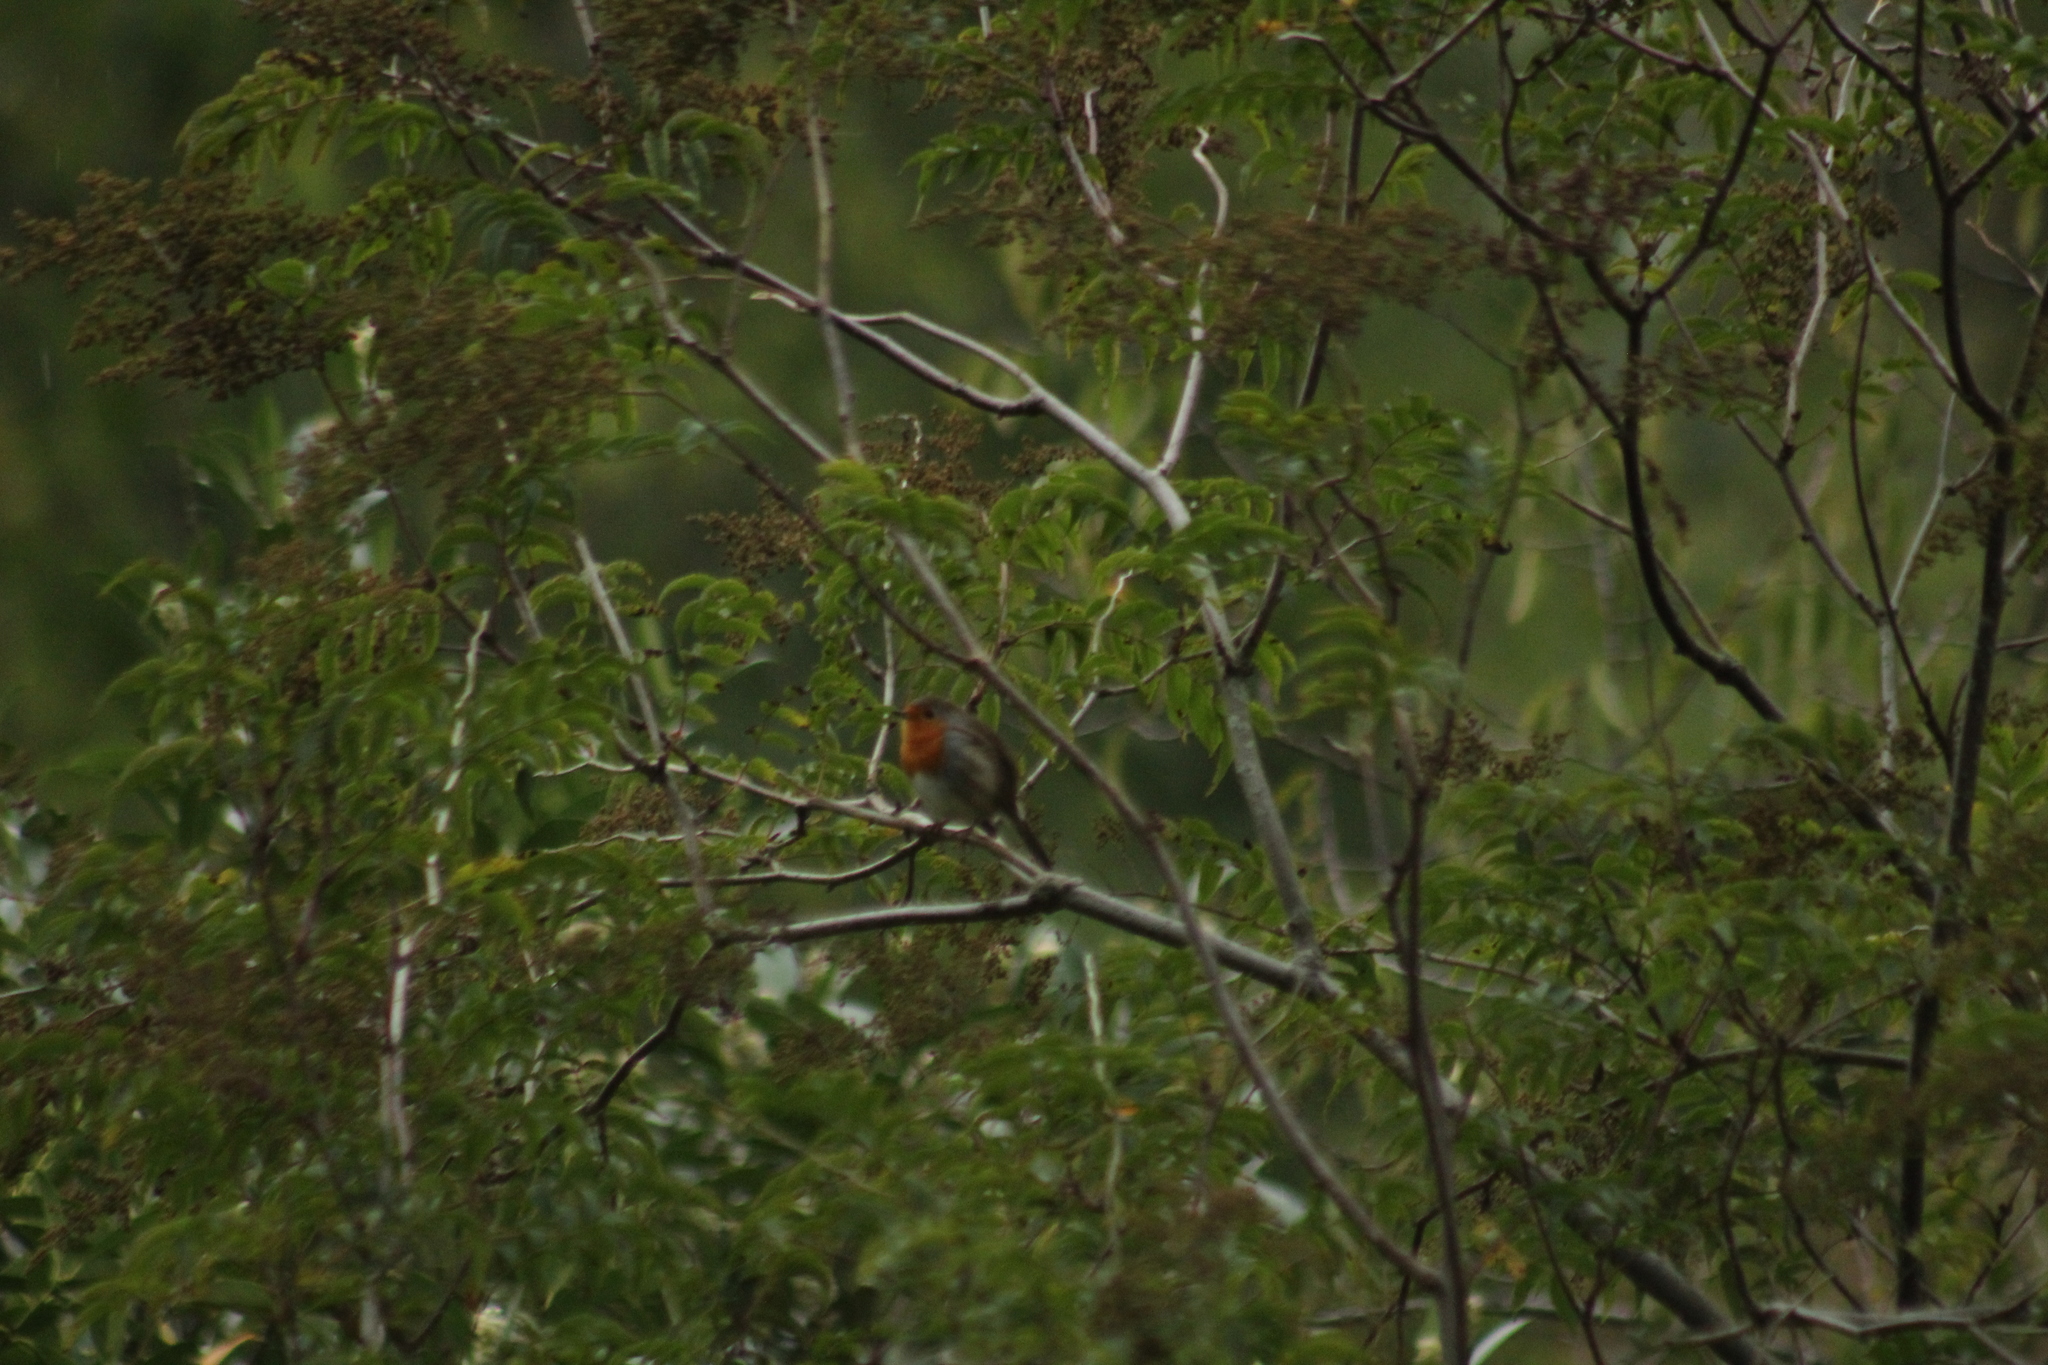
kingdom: Animalia
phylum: Chordata
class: Aves
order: Passeriformes
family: Muscicapidae
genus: Erithacus
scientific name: Erithacus rubecula
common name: European robin
